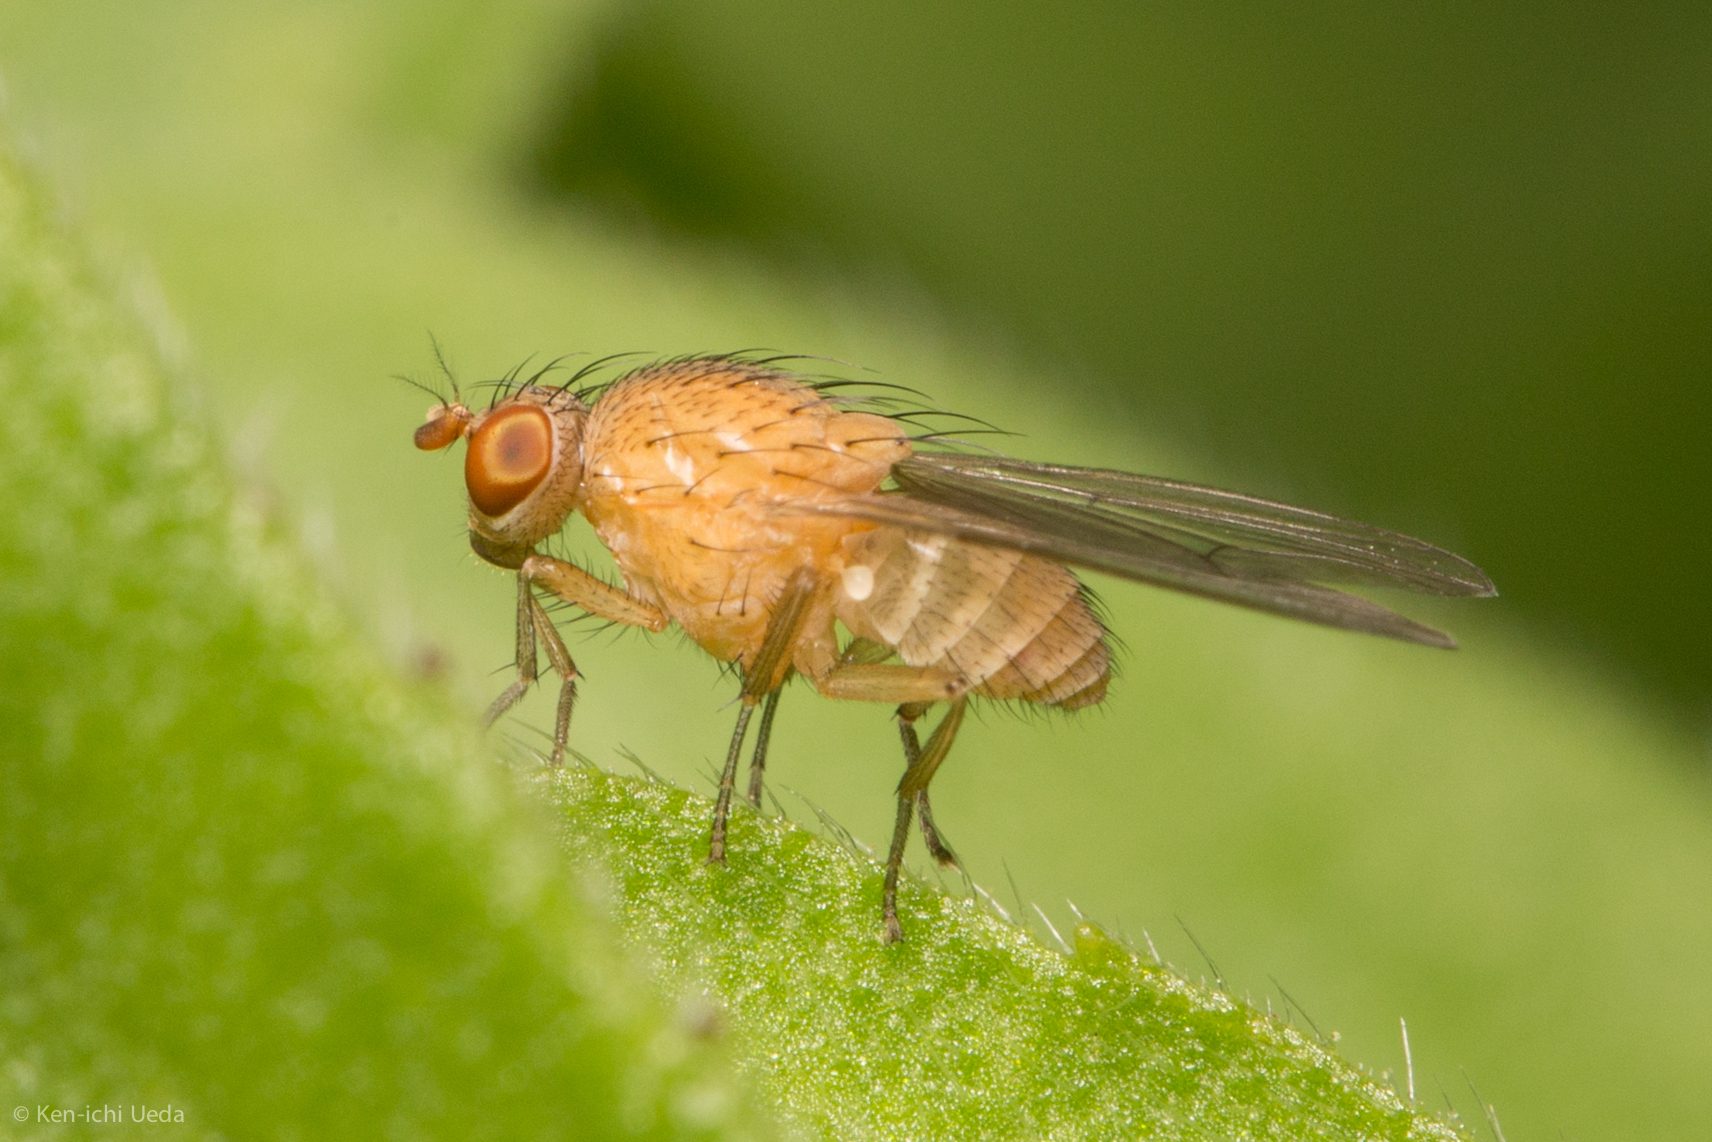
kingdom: Animalia
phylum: Arthropoda
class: Insecta
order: Diptera
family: Lauxaniidae
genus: Minettia
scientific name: Minettia flaveola
